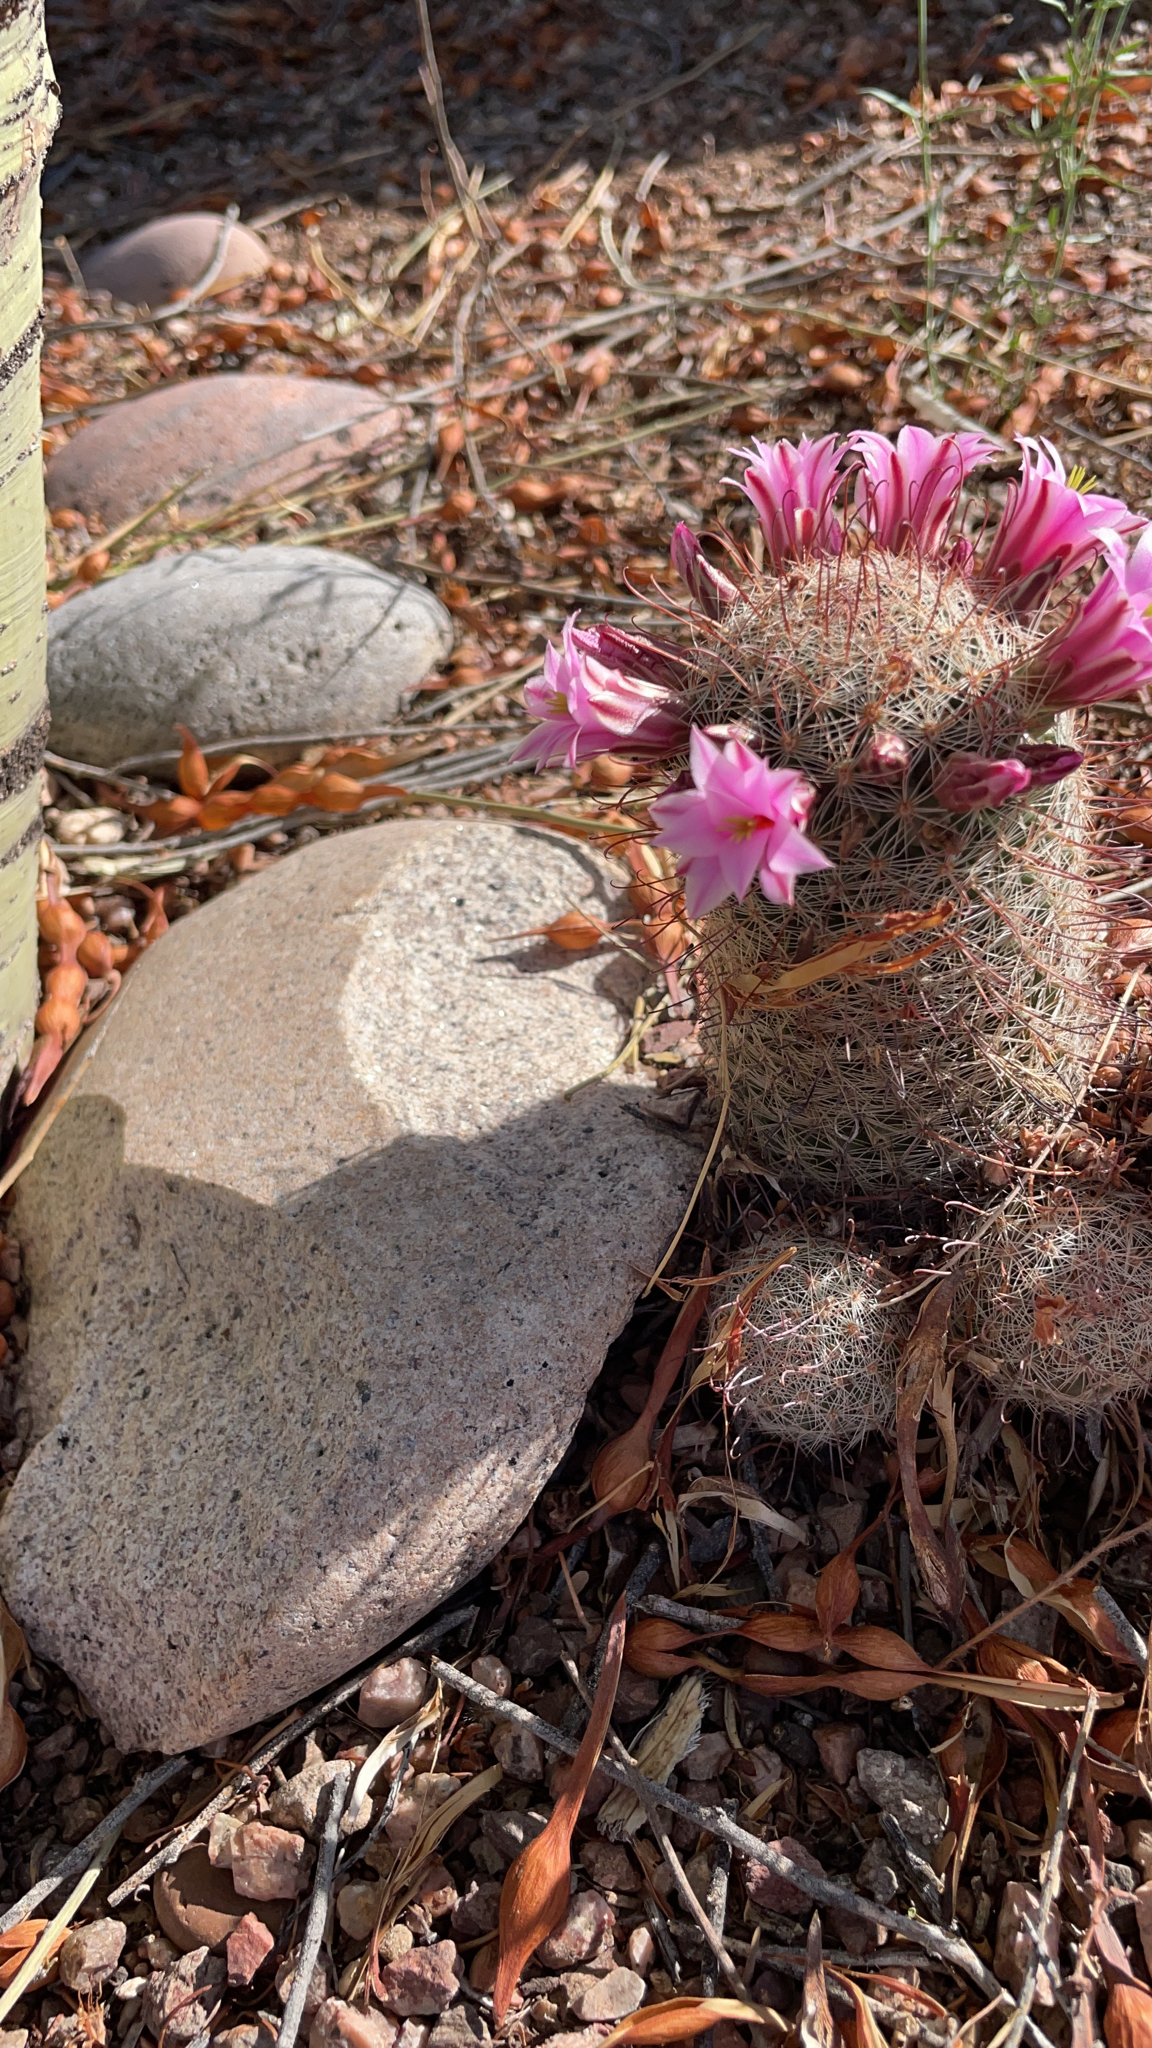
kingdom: Plantae
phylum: Tracheophyta
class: Magnoliopsida
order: Caryophyllales
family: Cactaceae
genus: Cochemiea
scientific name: Cochemiea grahamii
